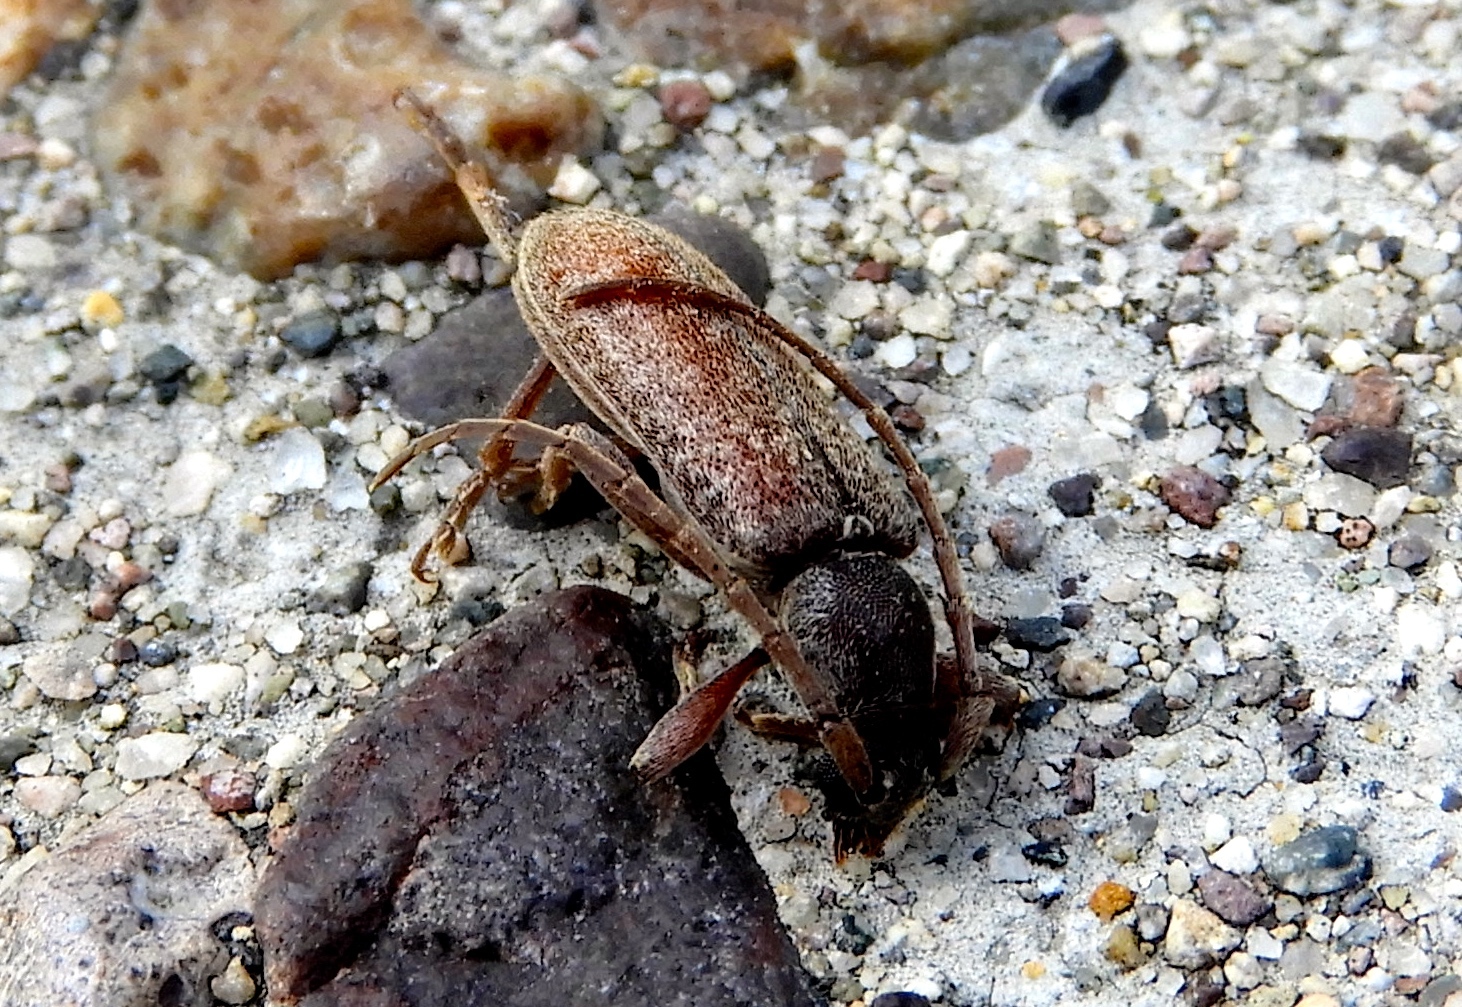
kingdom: Animalia
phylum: Arthropoda
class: Insecta
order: Coleoptera
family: Cerambycidae
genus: Anelaphus
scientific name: Anelaphus badius
